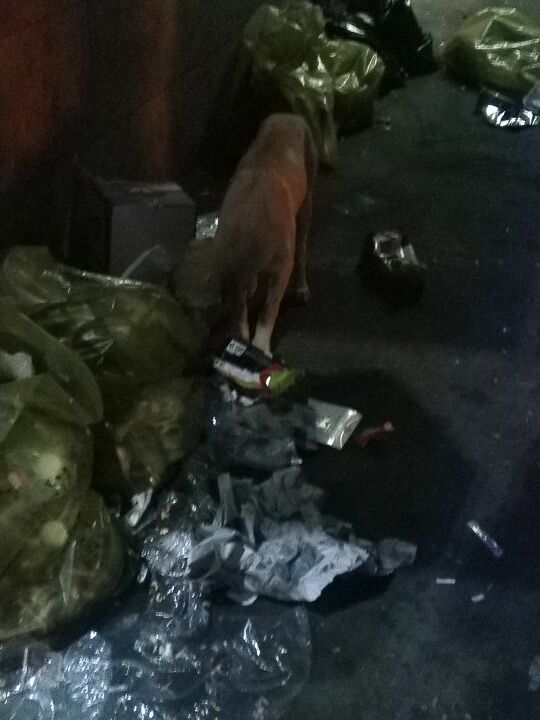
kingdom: Animalia
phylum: Chordata
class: Mammalia
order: Carnivora
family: Canidae
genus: Canis
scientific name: Canis lupus
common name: Gray wolf
